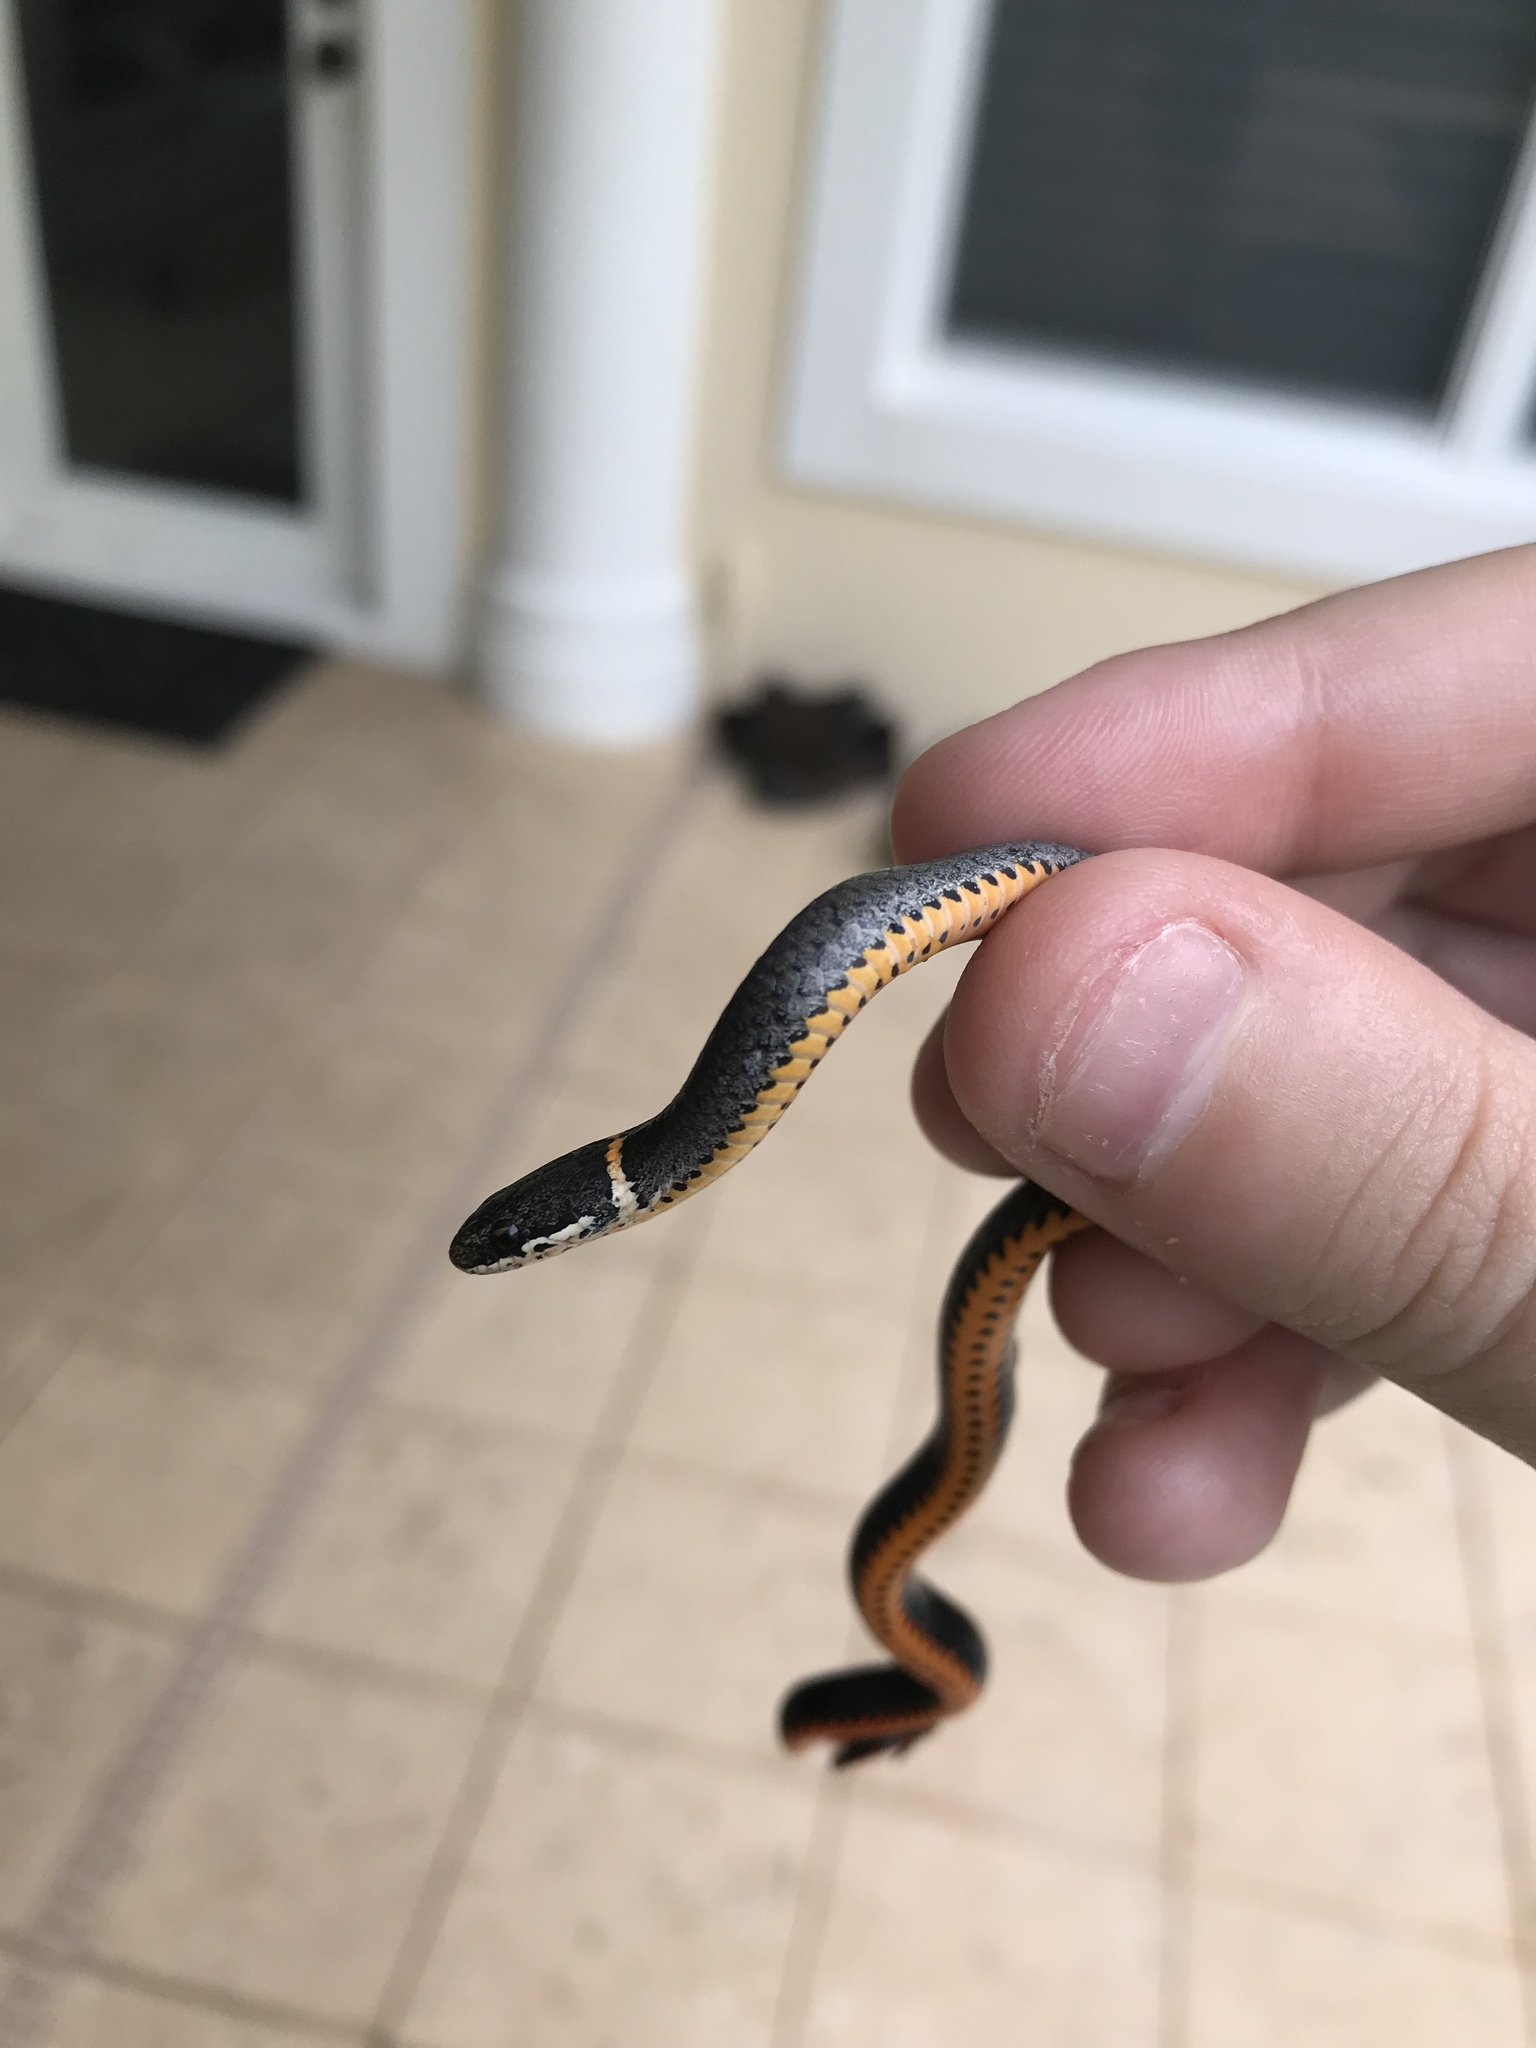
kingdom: Animalia
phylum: Chordata
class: Squamata
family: Colubridae
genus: Diadophis
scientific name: Diadophis punctatus
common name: Ringneck snake
